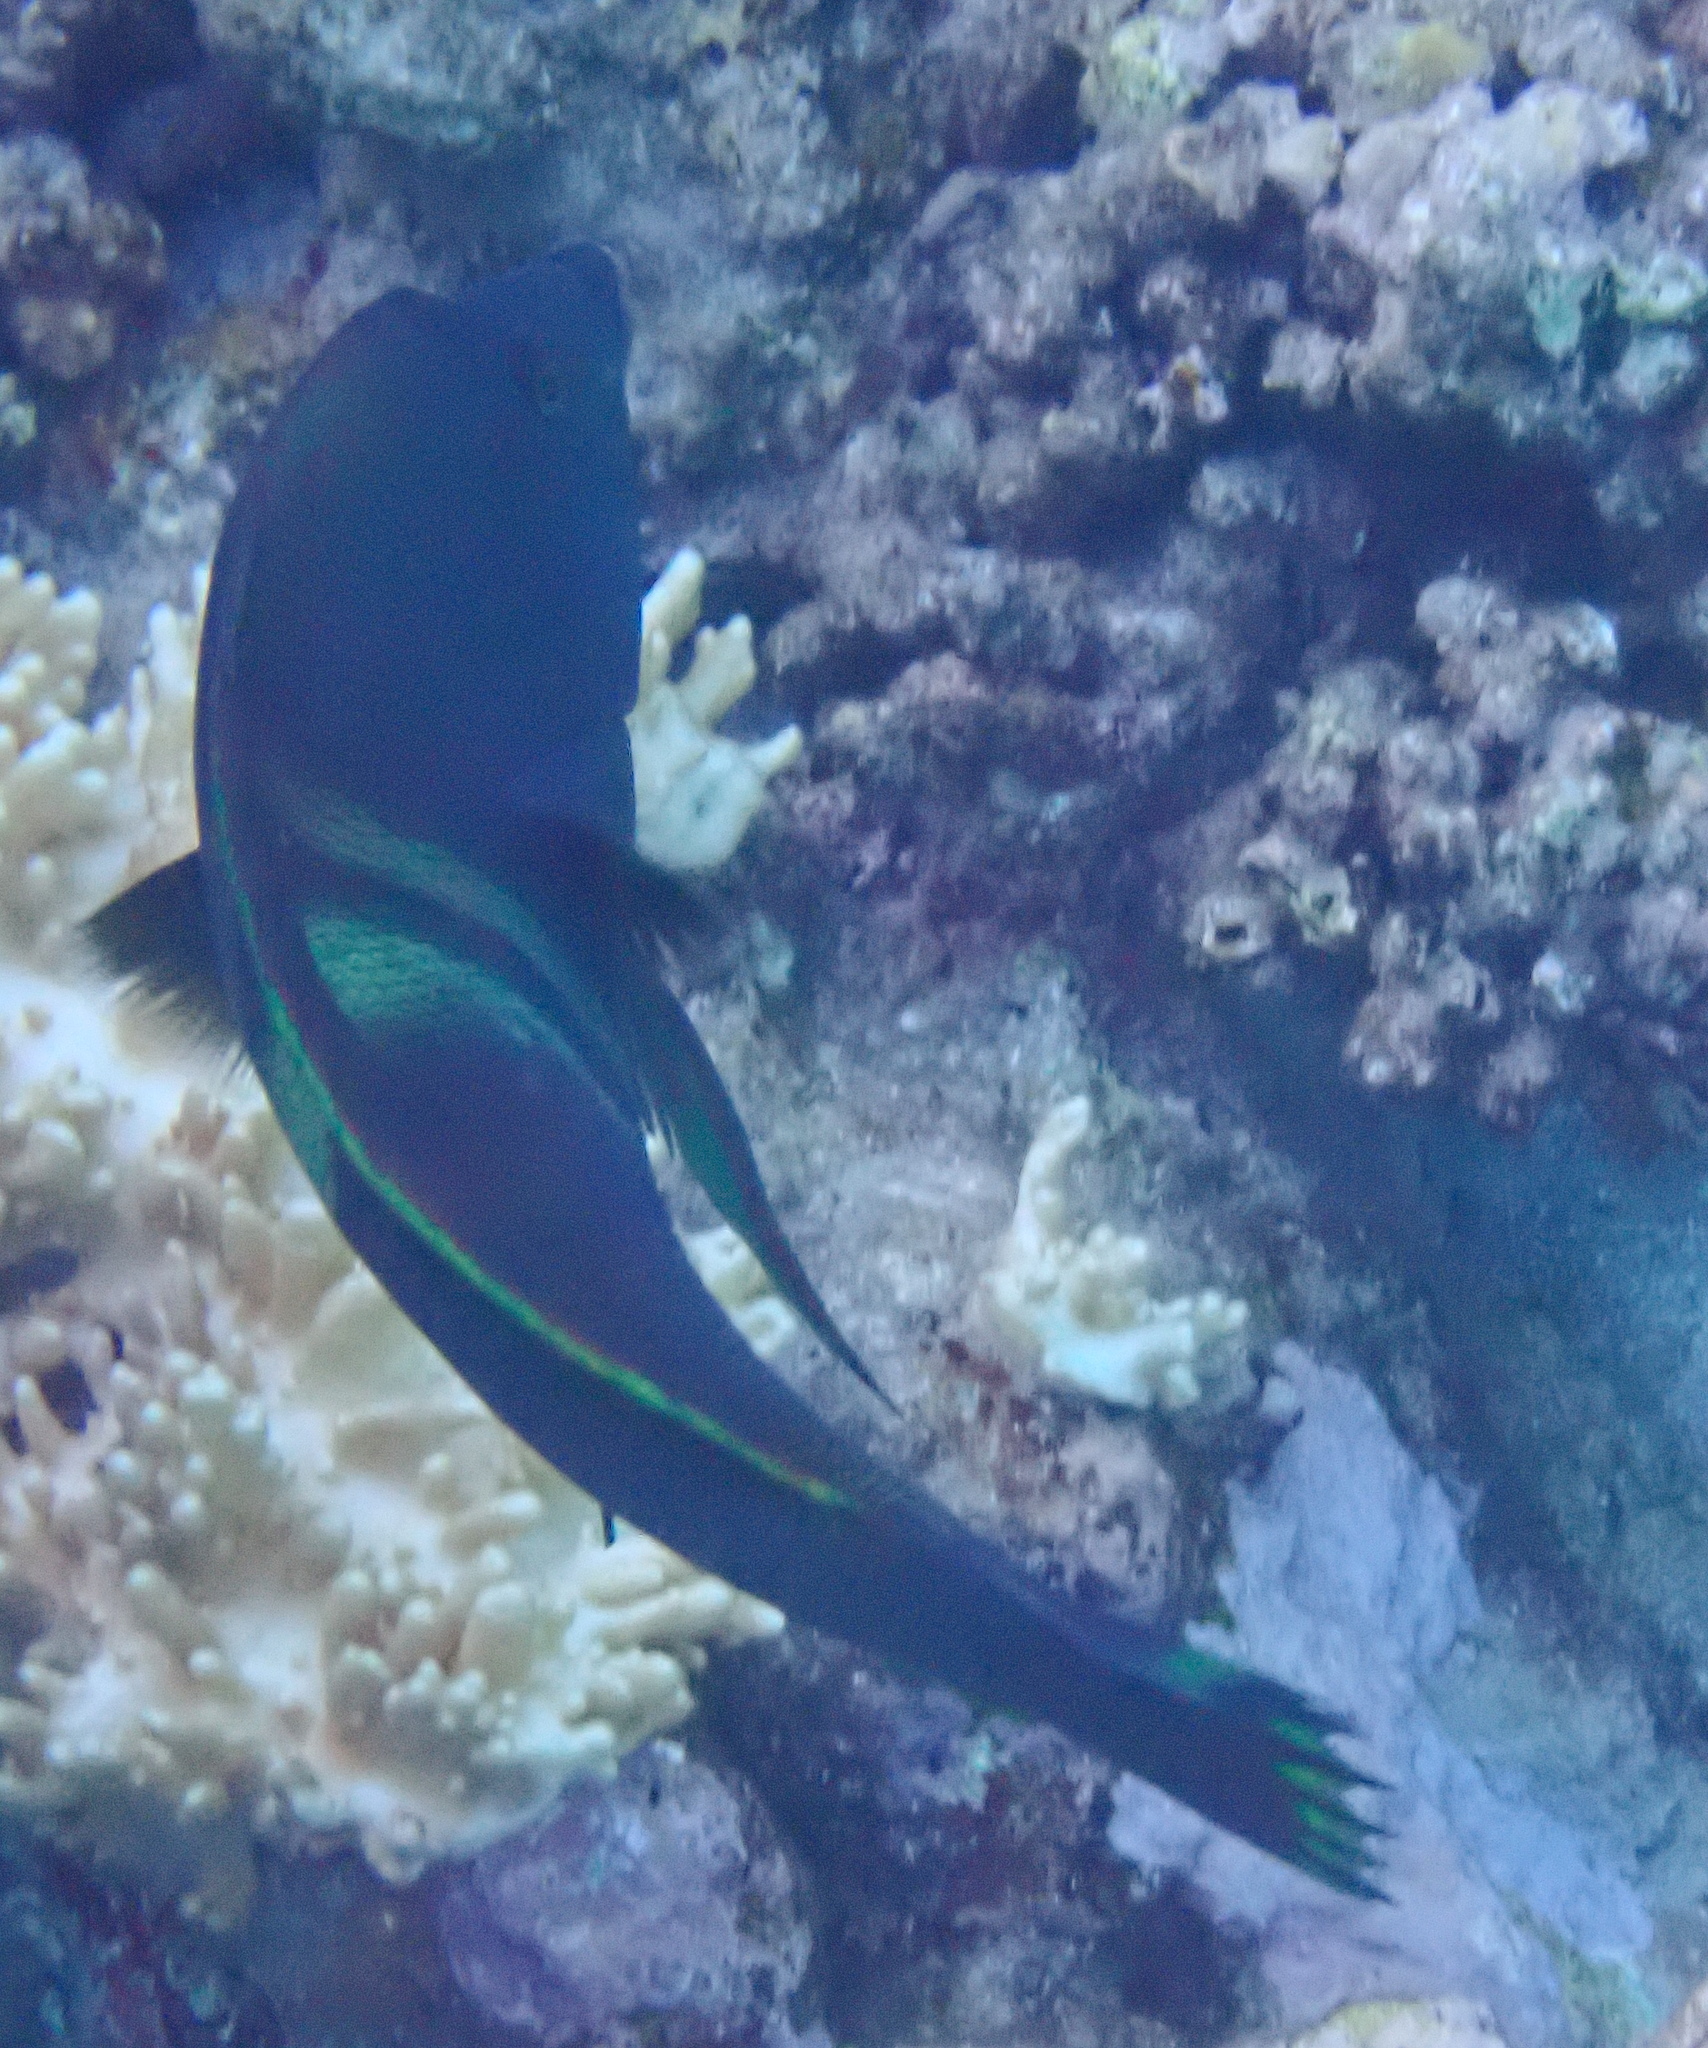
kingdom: Animalia
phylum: Chordata
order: Perciformes
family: Labridae
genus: Coris
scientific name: Coris aygula
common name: Clown coris
